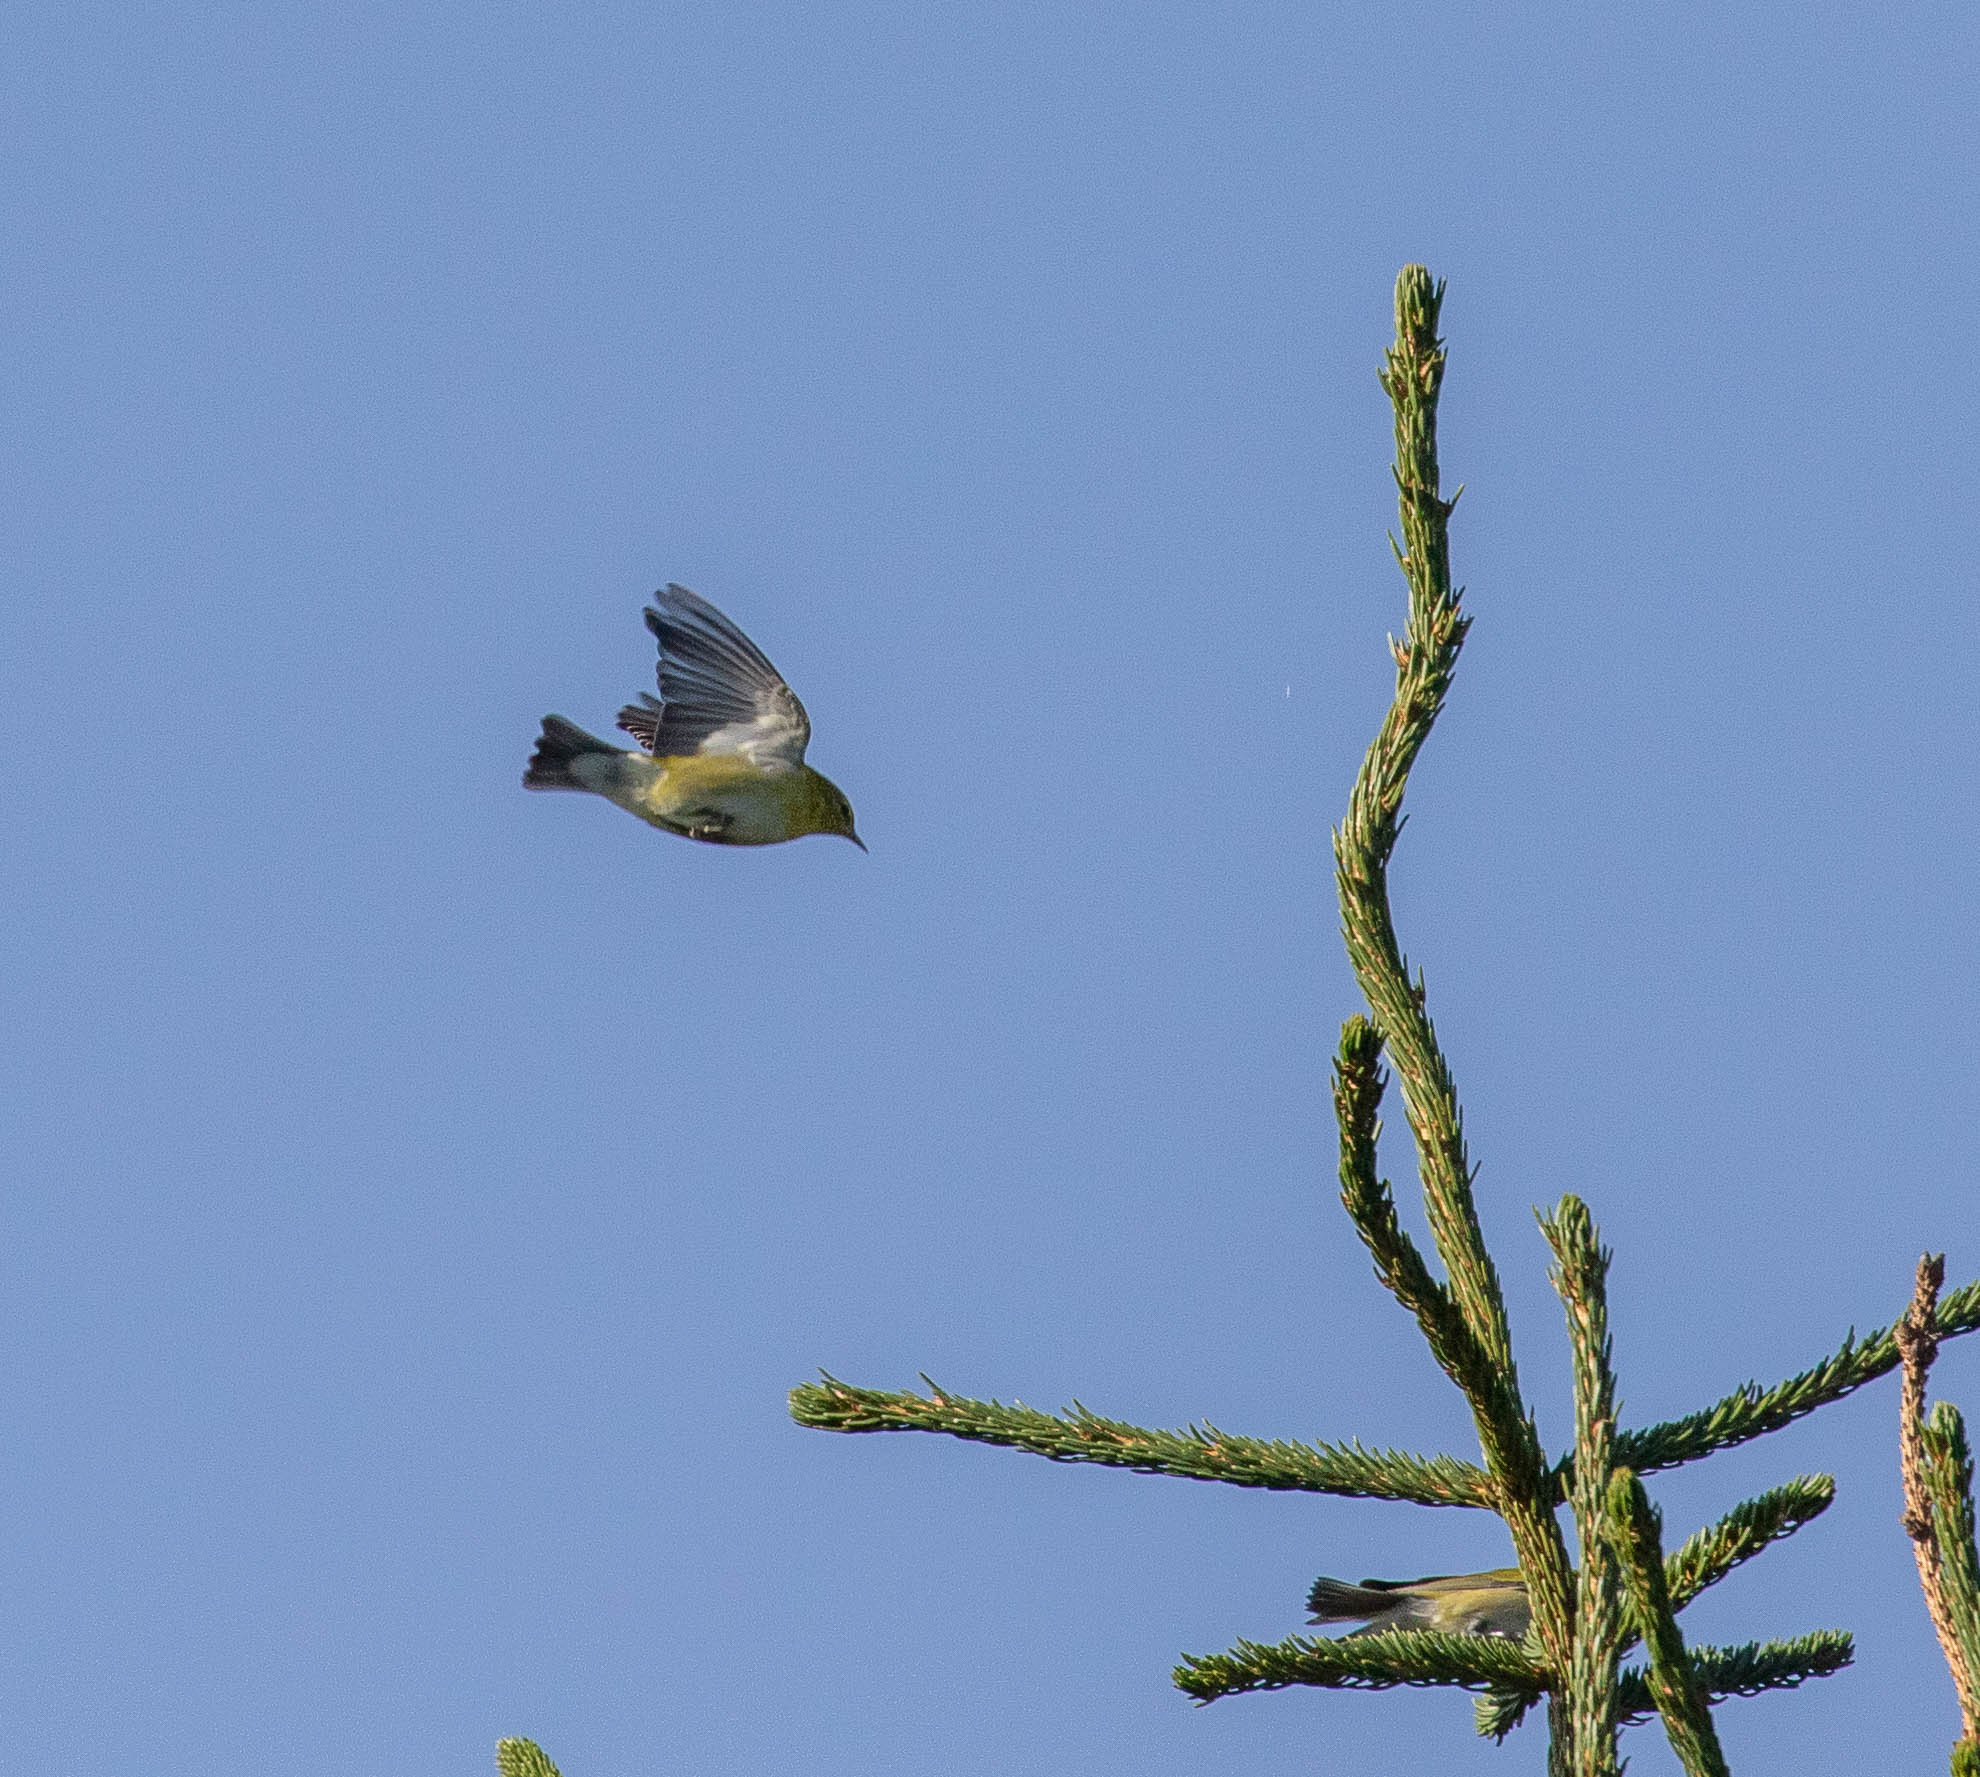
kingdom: Animalia
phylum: Chordata
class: Aves
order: Passeriformes
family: Parulidae
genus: Leiothlypis
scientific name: Leiothlypis peregrina
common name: Tennessee warbler
